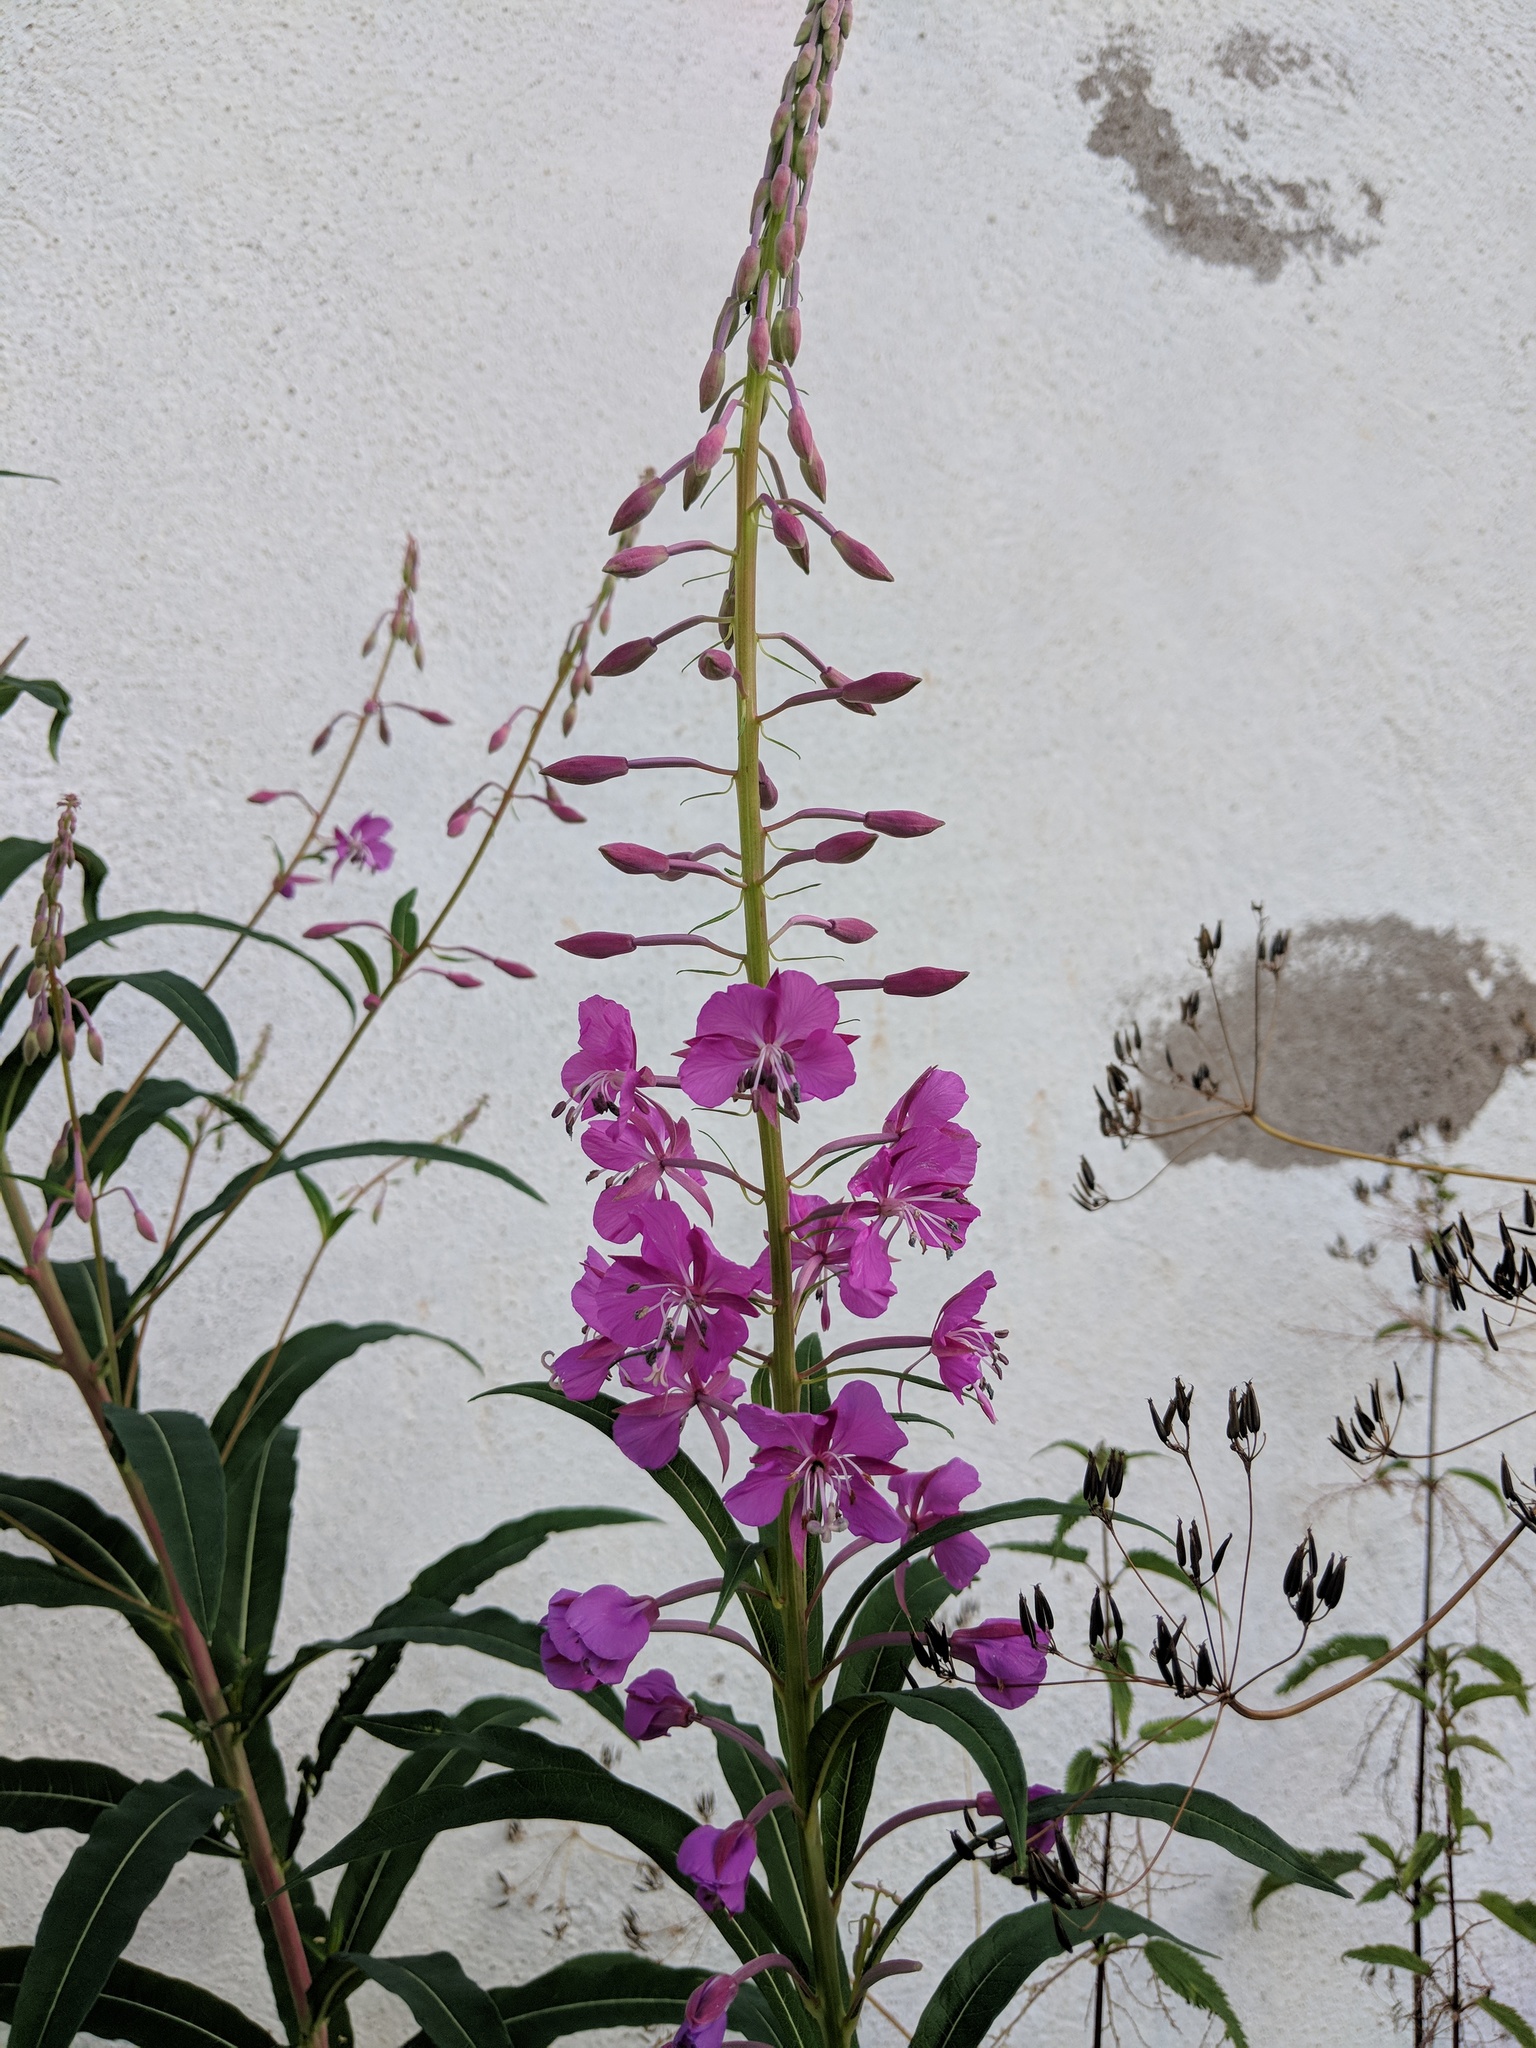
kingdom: Plantae
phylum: Tracheophyta
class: Magnoliopsida
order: Myrtales
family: Onagraceae
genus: Chamaenerion
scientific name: Chamaenerion angustifolium
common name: Fireweed
